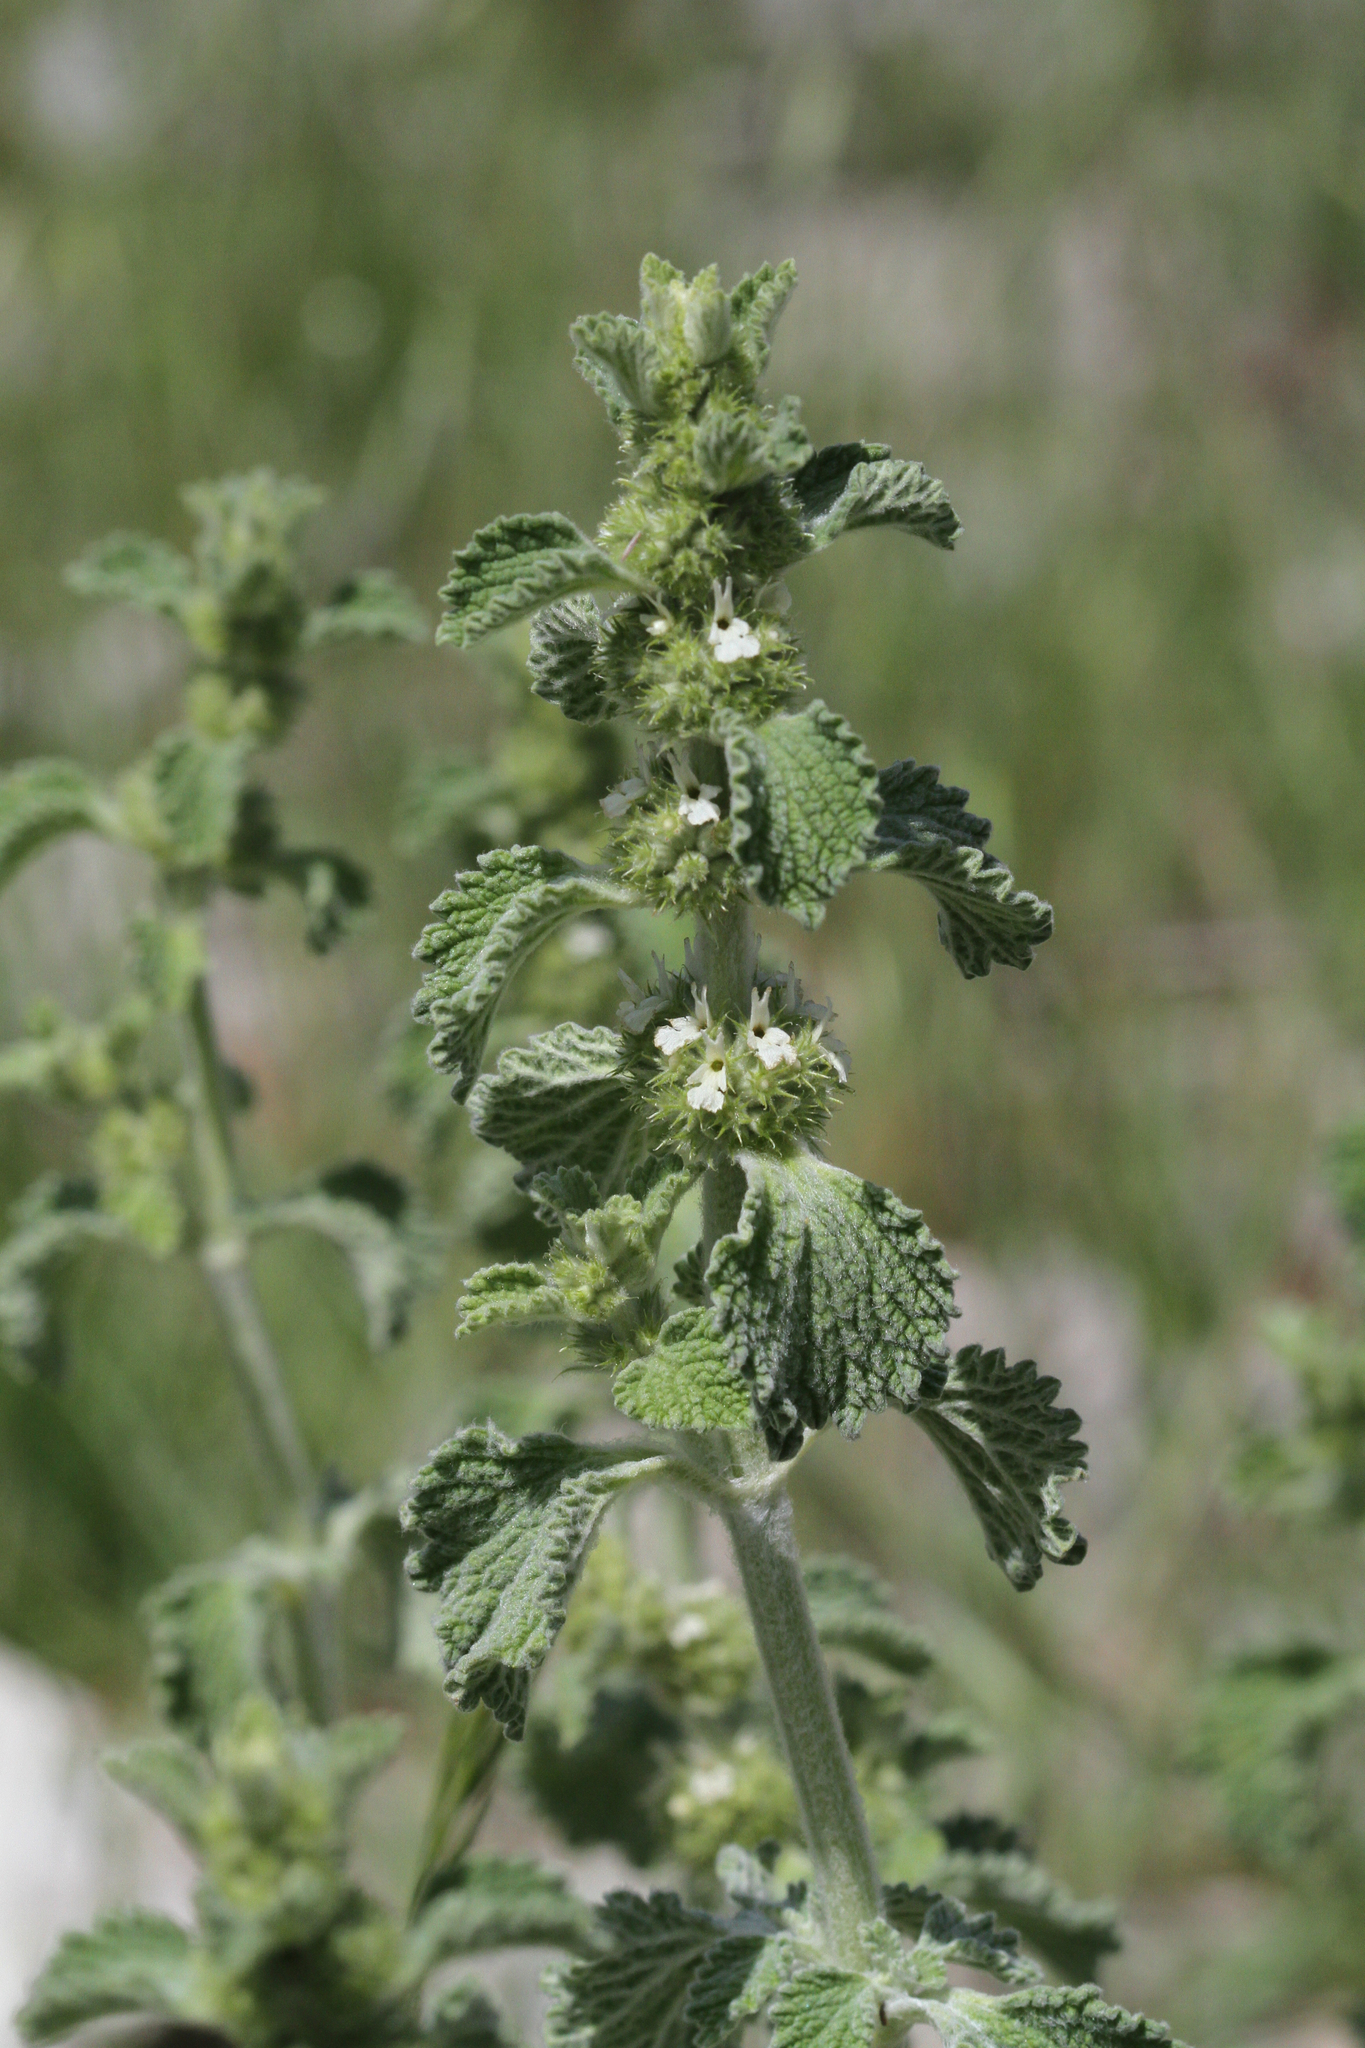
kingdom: Plantae
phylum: Tracheophyta
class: Magnoliopsida
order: Lamiales
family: Lamiaceae
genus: Marrubium
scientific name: Marrubium vulgare
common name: Horehound
